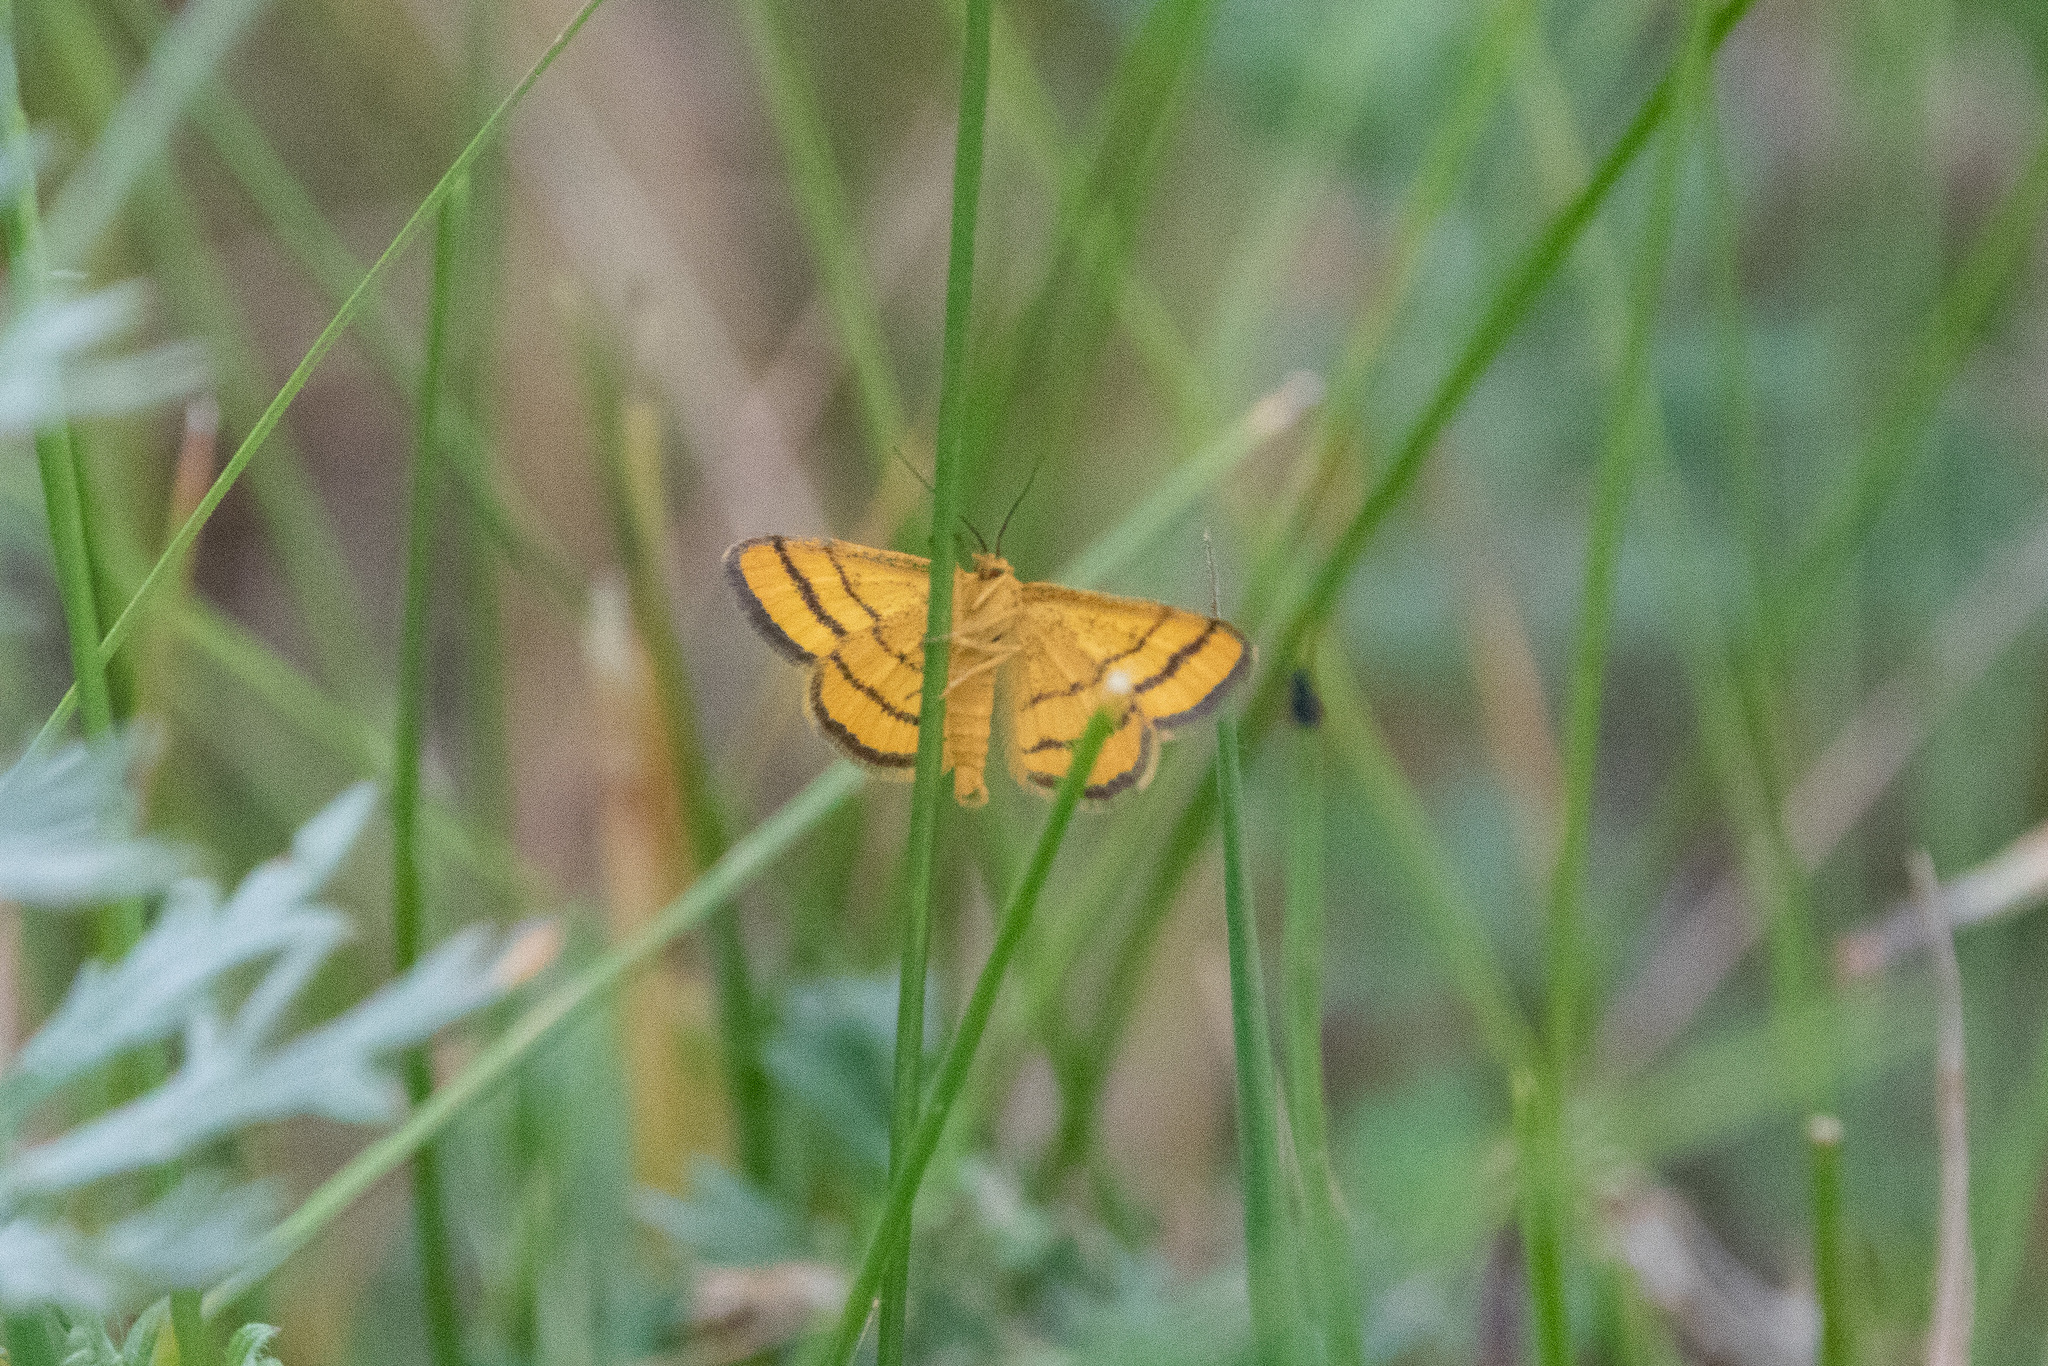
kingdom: Animalia
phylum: Arthropoda
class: Insecta
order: Lepidoptera
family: Geometridae
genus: Idaea
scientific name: Idaea aureolaria
